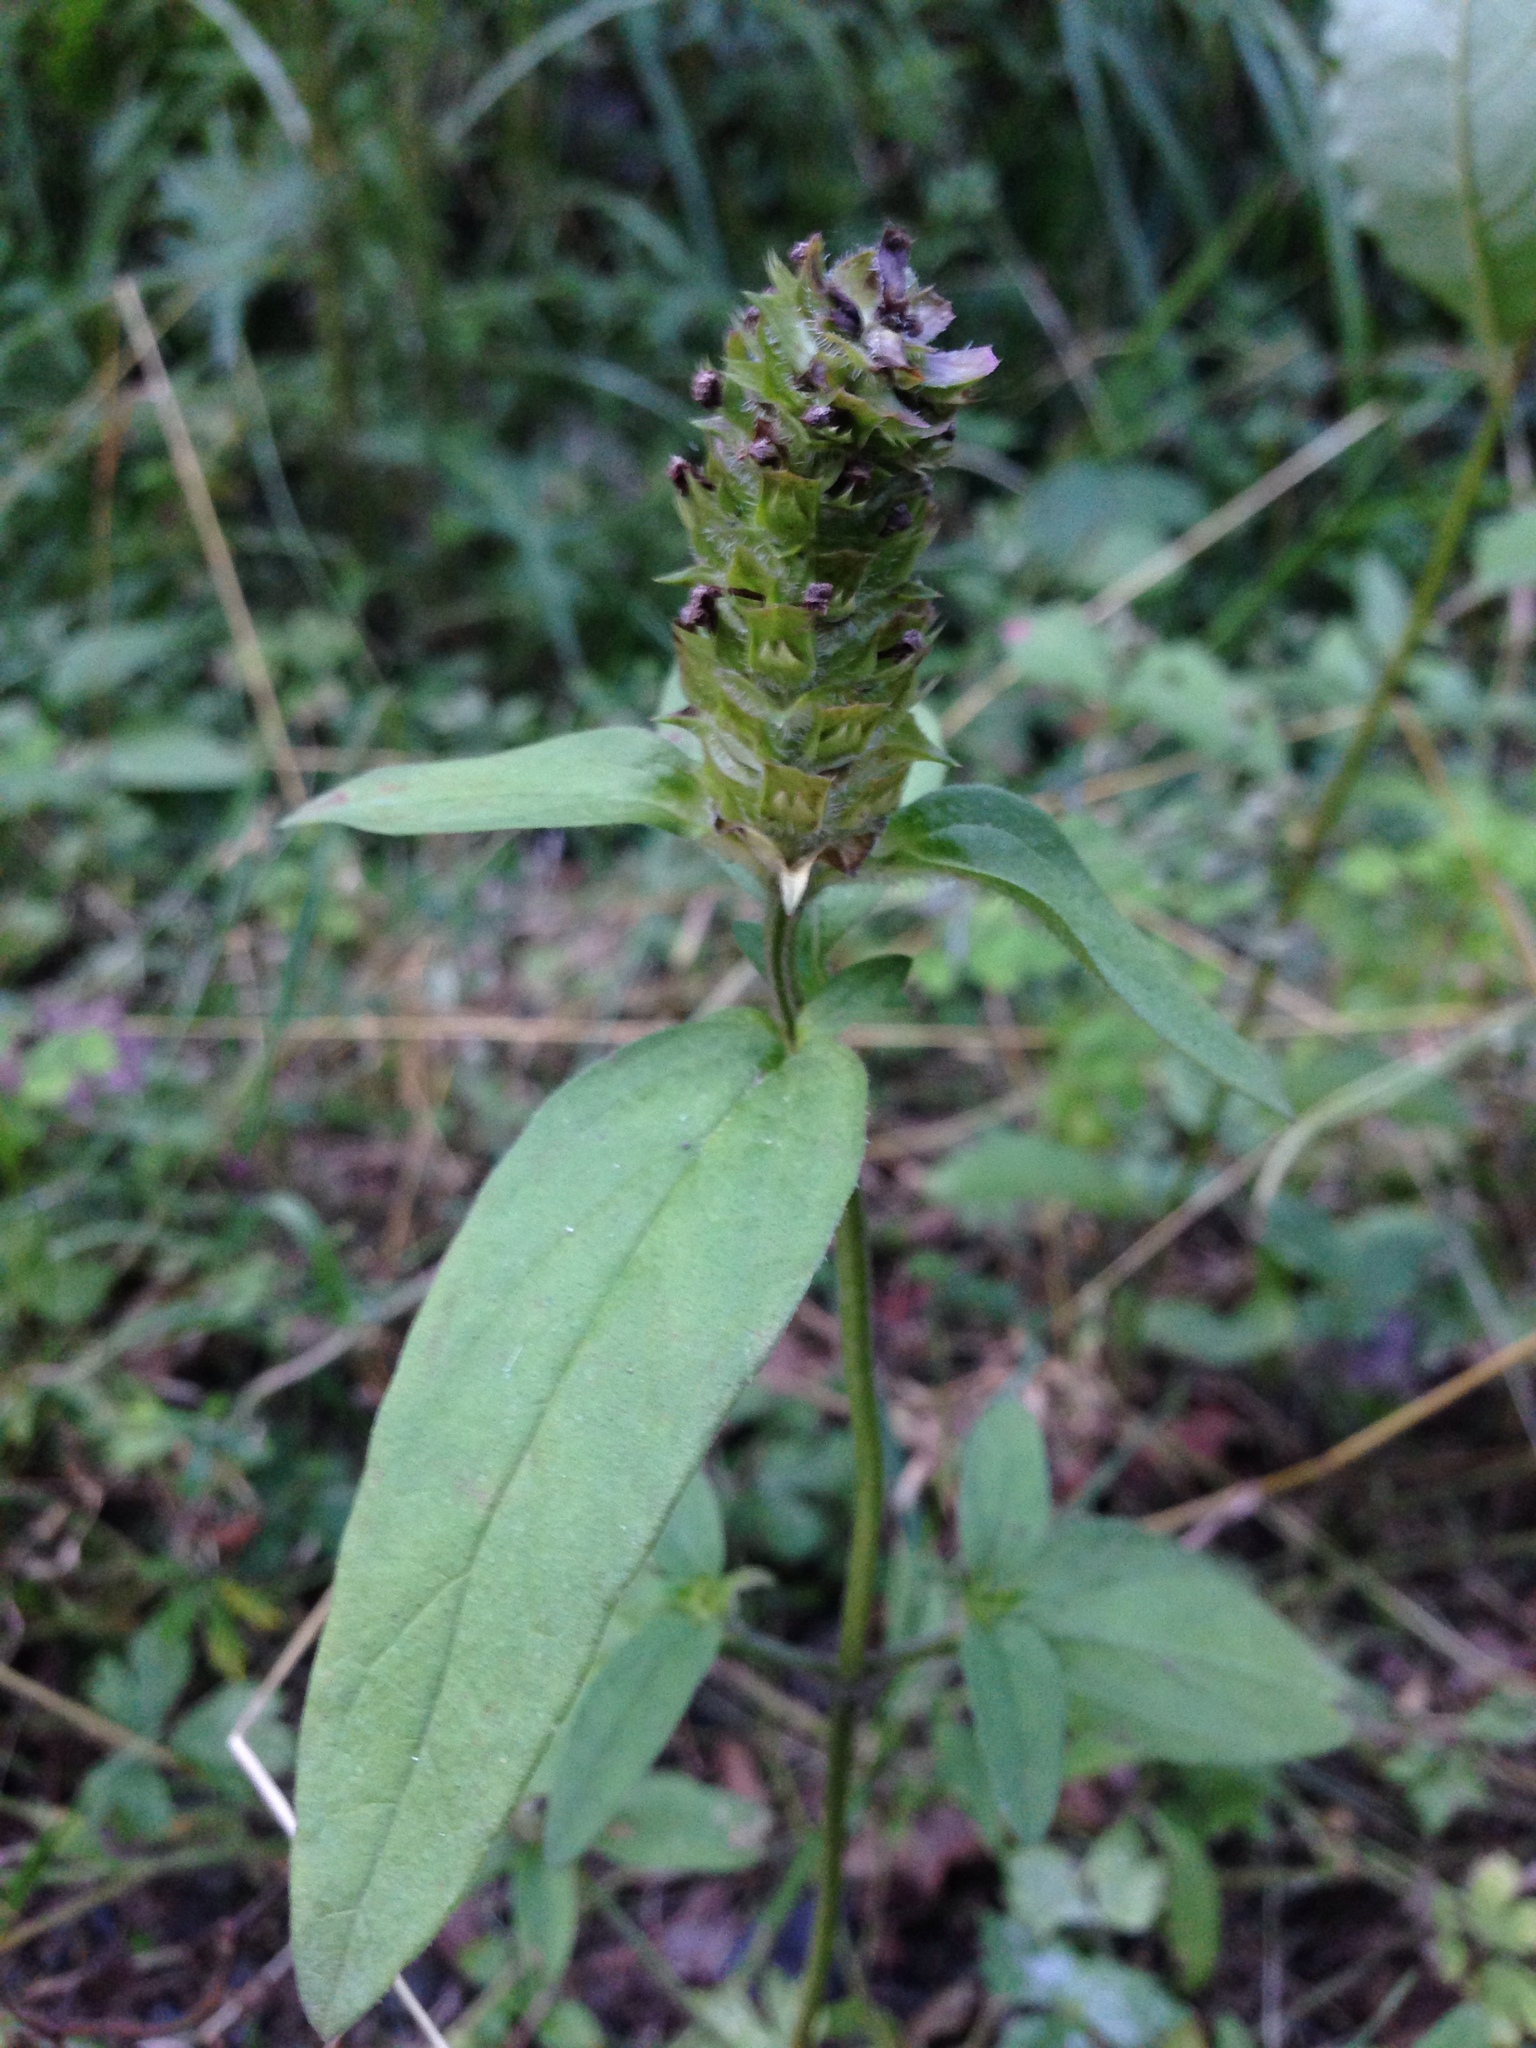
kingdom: Plantae
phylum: Tracheophyta
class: Magnoliopsida
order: Lamiales
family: Lamiaceae
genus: Prunella
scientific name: Prunella vulgaris
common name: Heal-all
